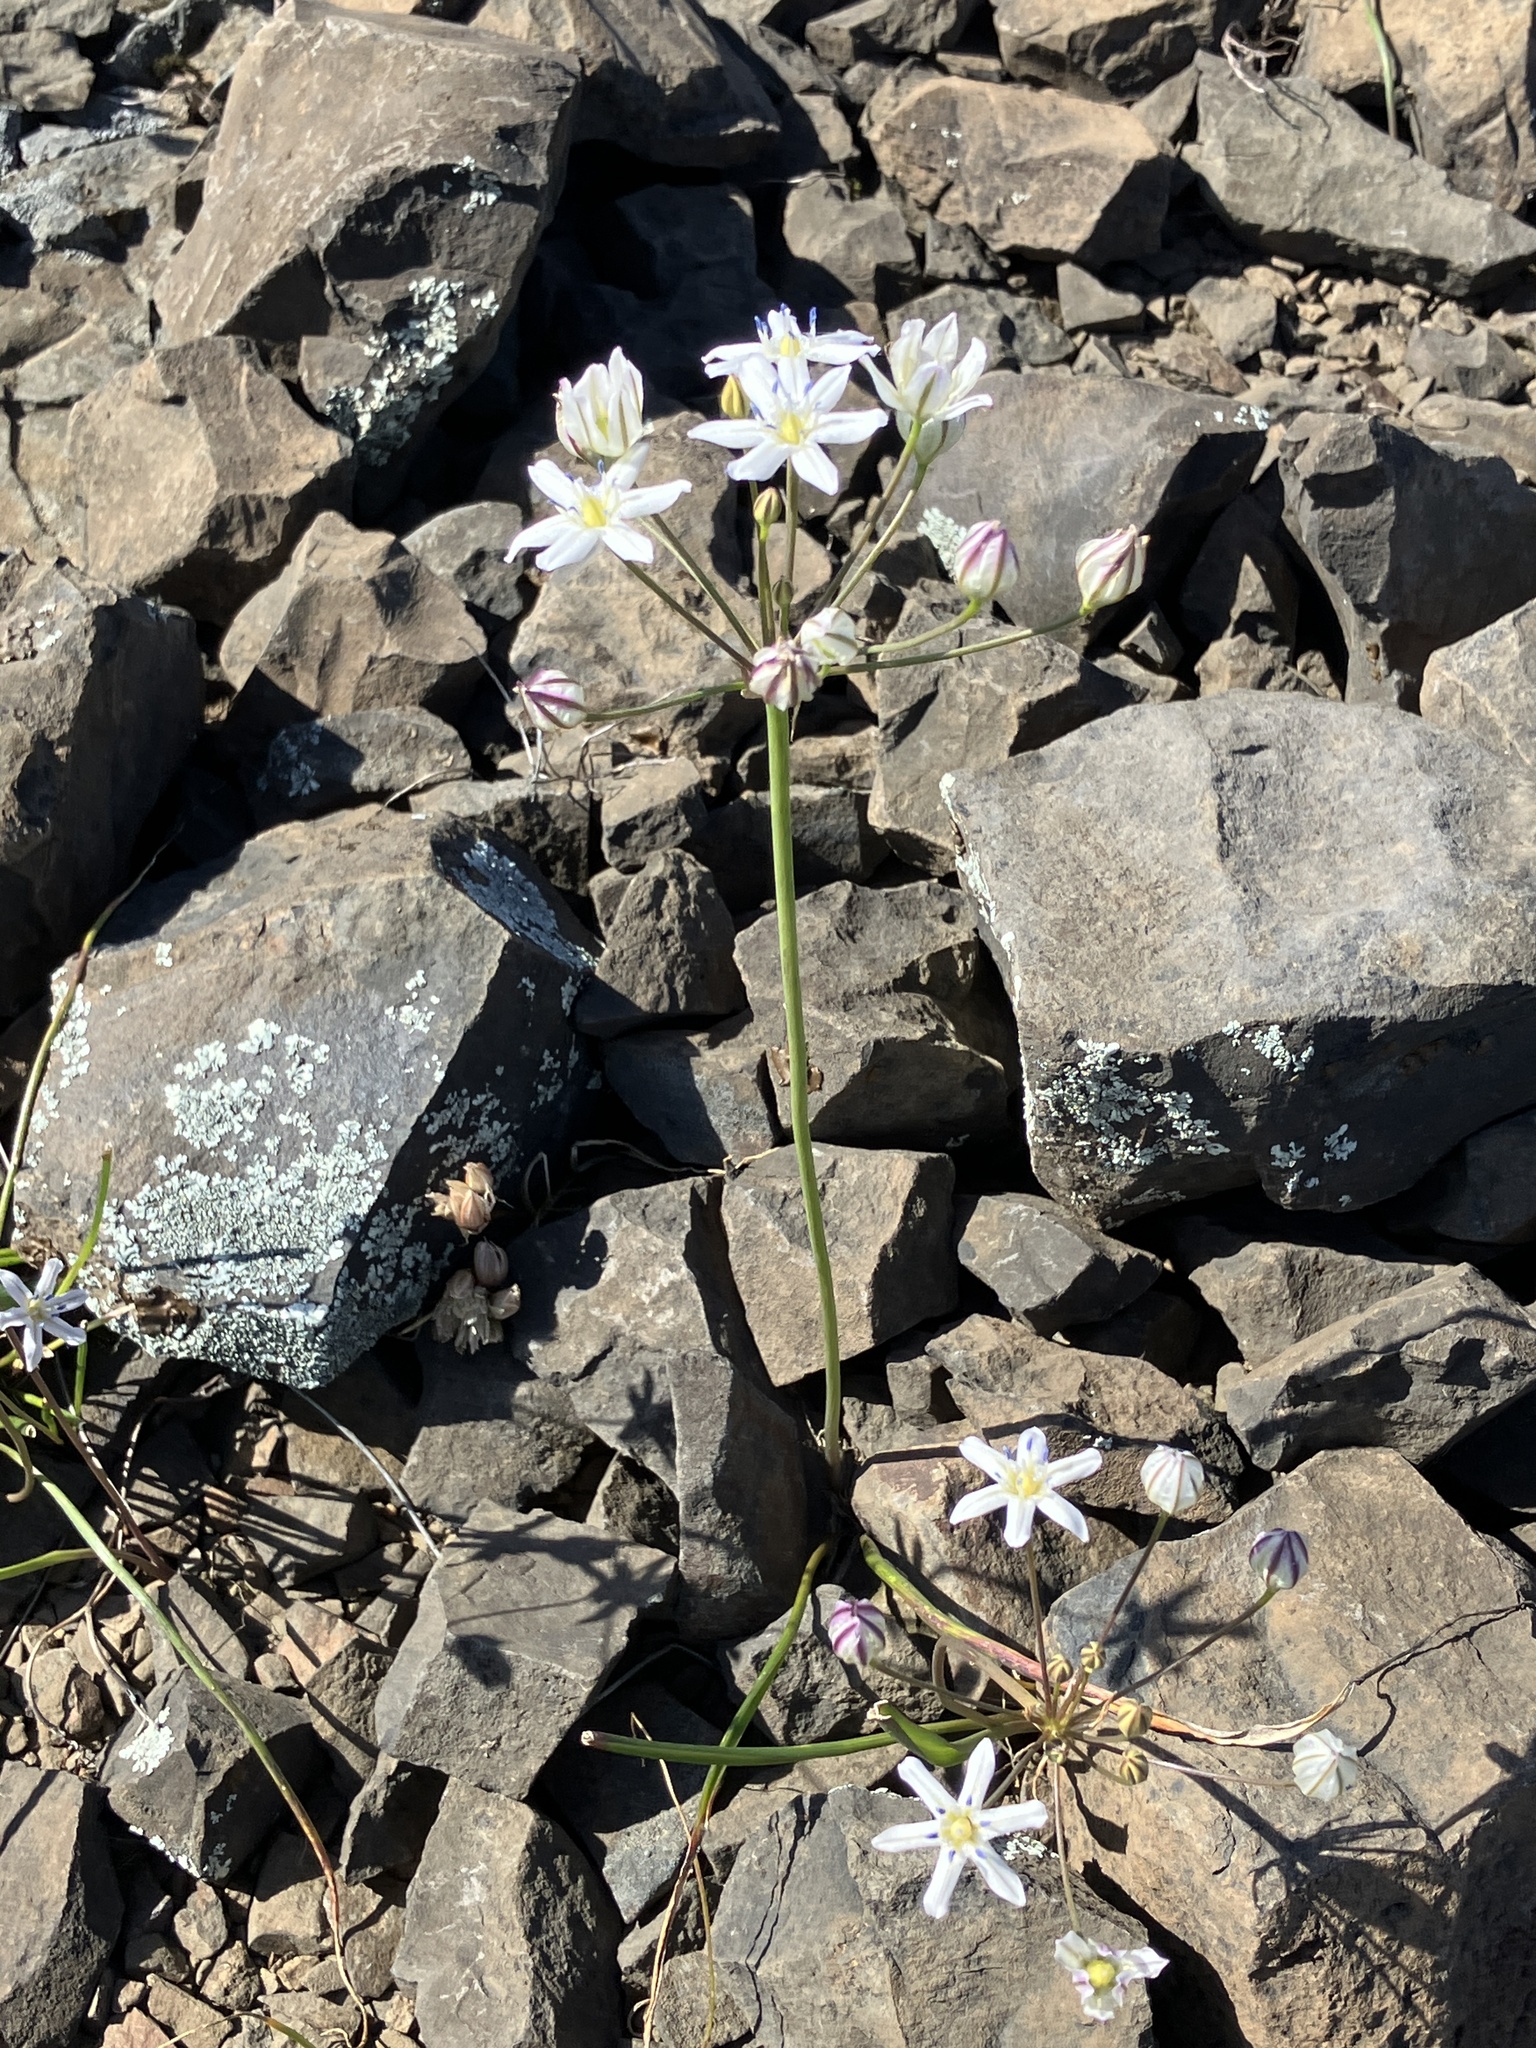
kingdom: Plantae
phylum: Tracheophyta
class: Liliopsida
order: Asparagales
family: Asparagaceae
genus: Triteleia
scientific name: Triteleia lilacina
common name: Lilac-flower wild hyacinth
